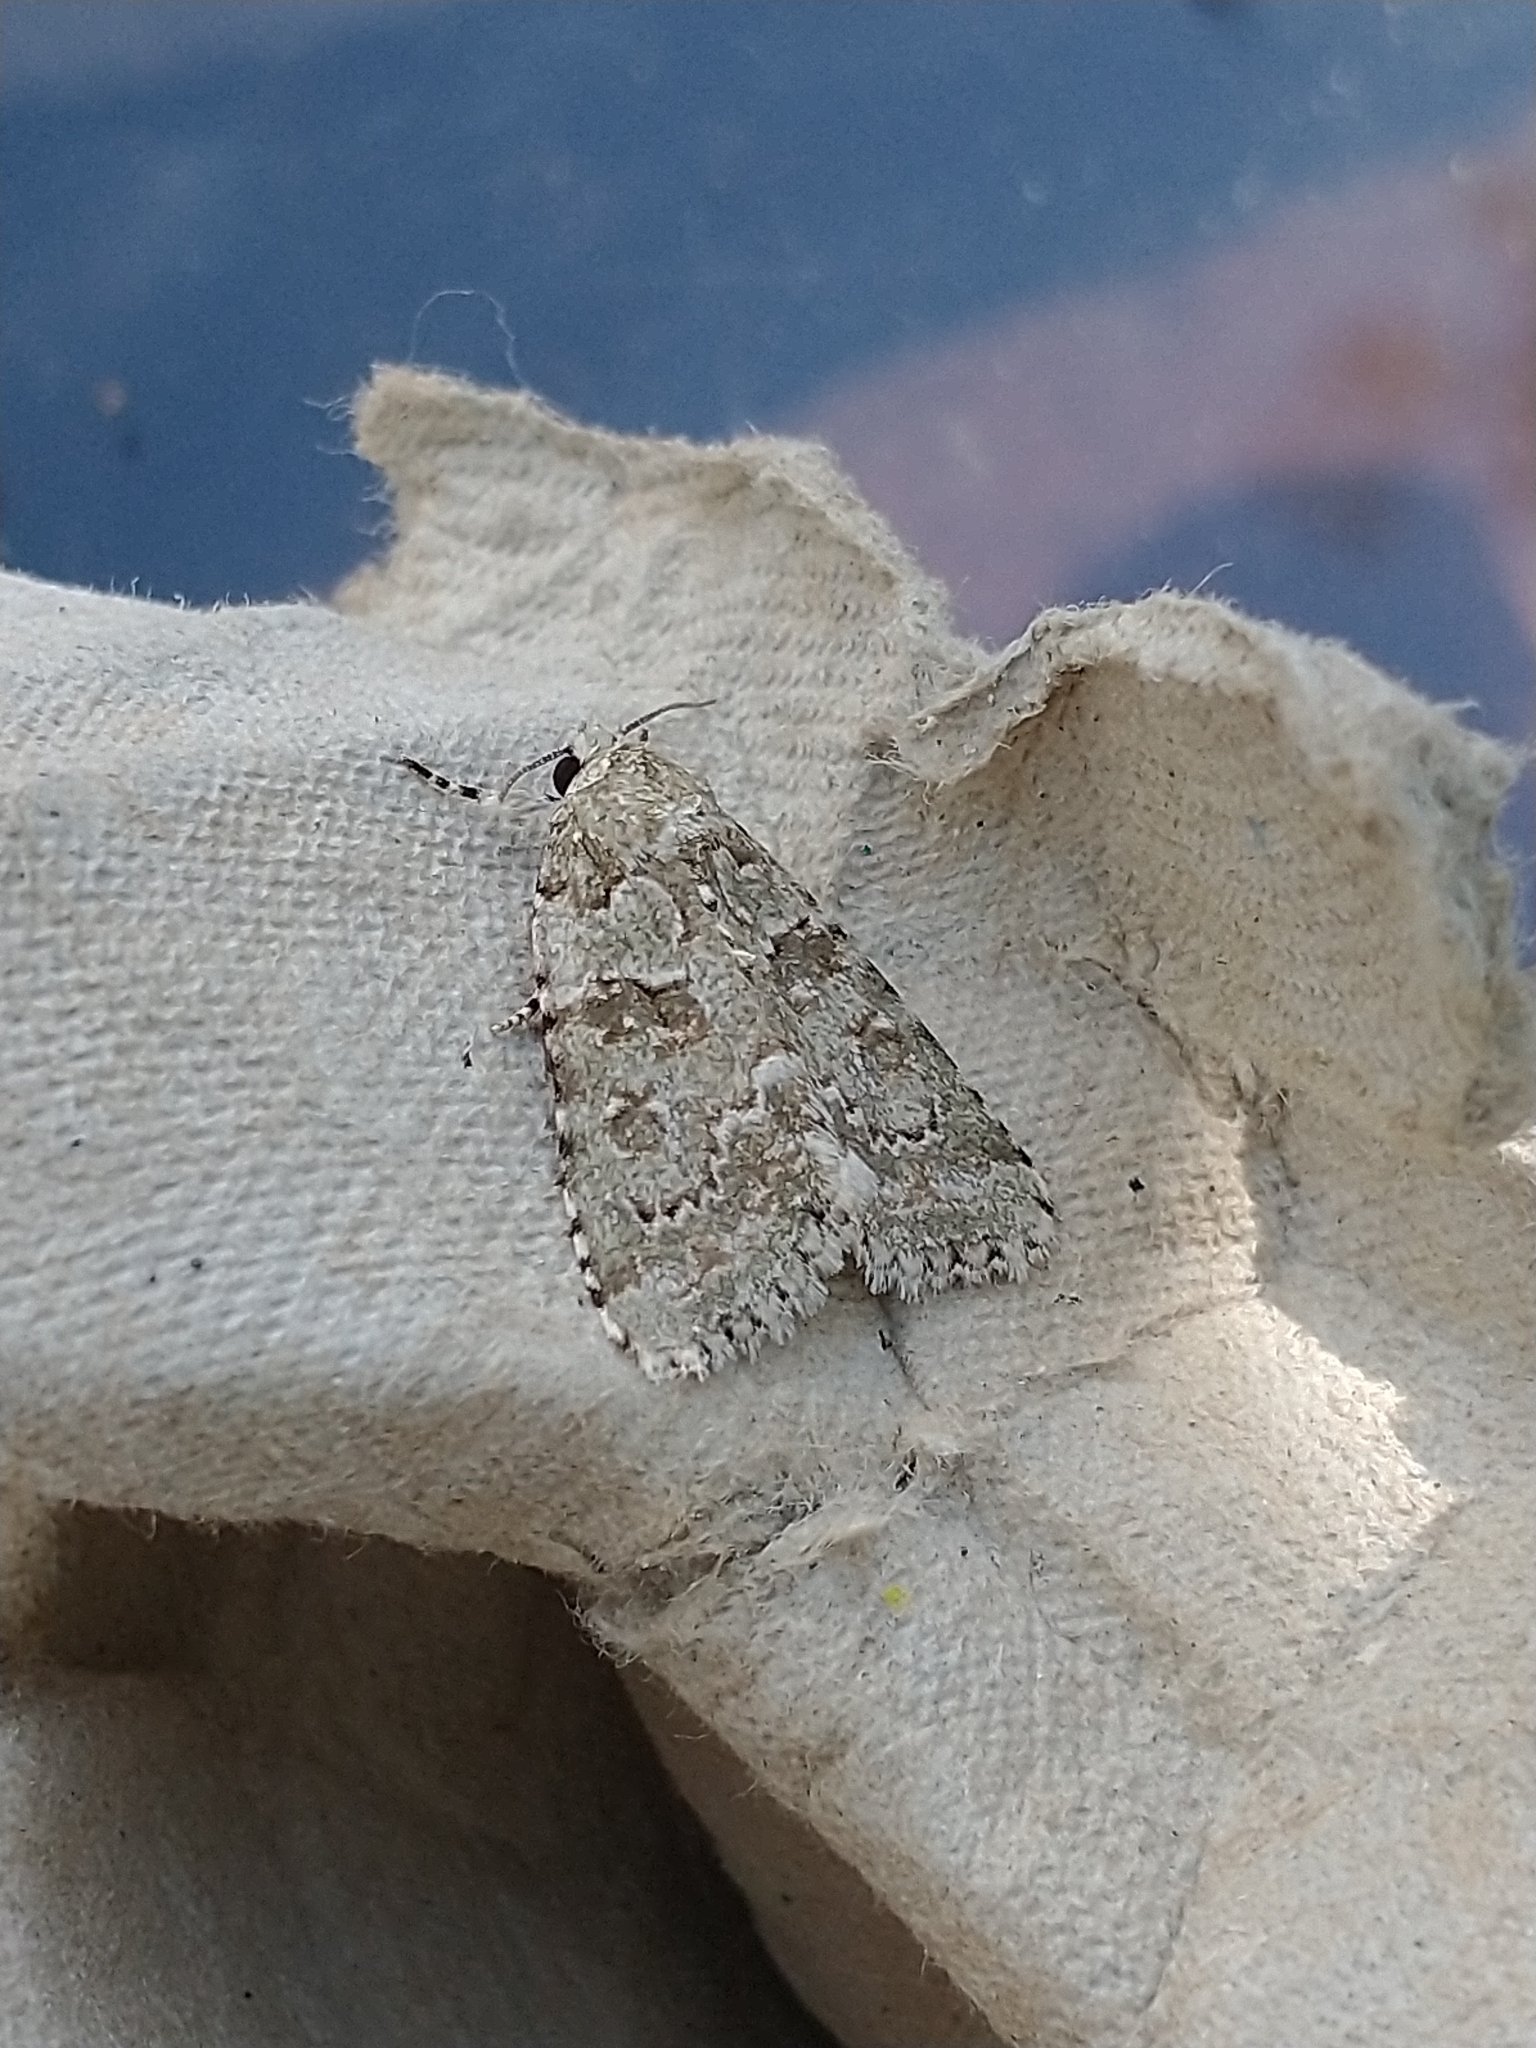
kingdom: Animalia
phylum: Arthropoda
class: Insecta
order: Lepidoptera
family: Noctuidae
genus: Nyctobrya
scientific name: Nyctobrya muralis
